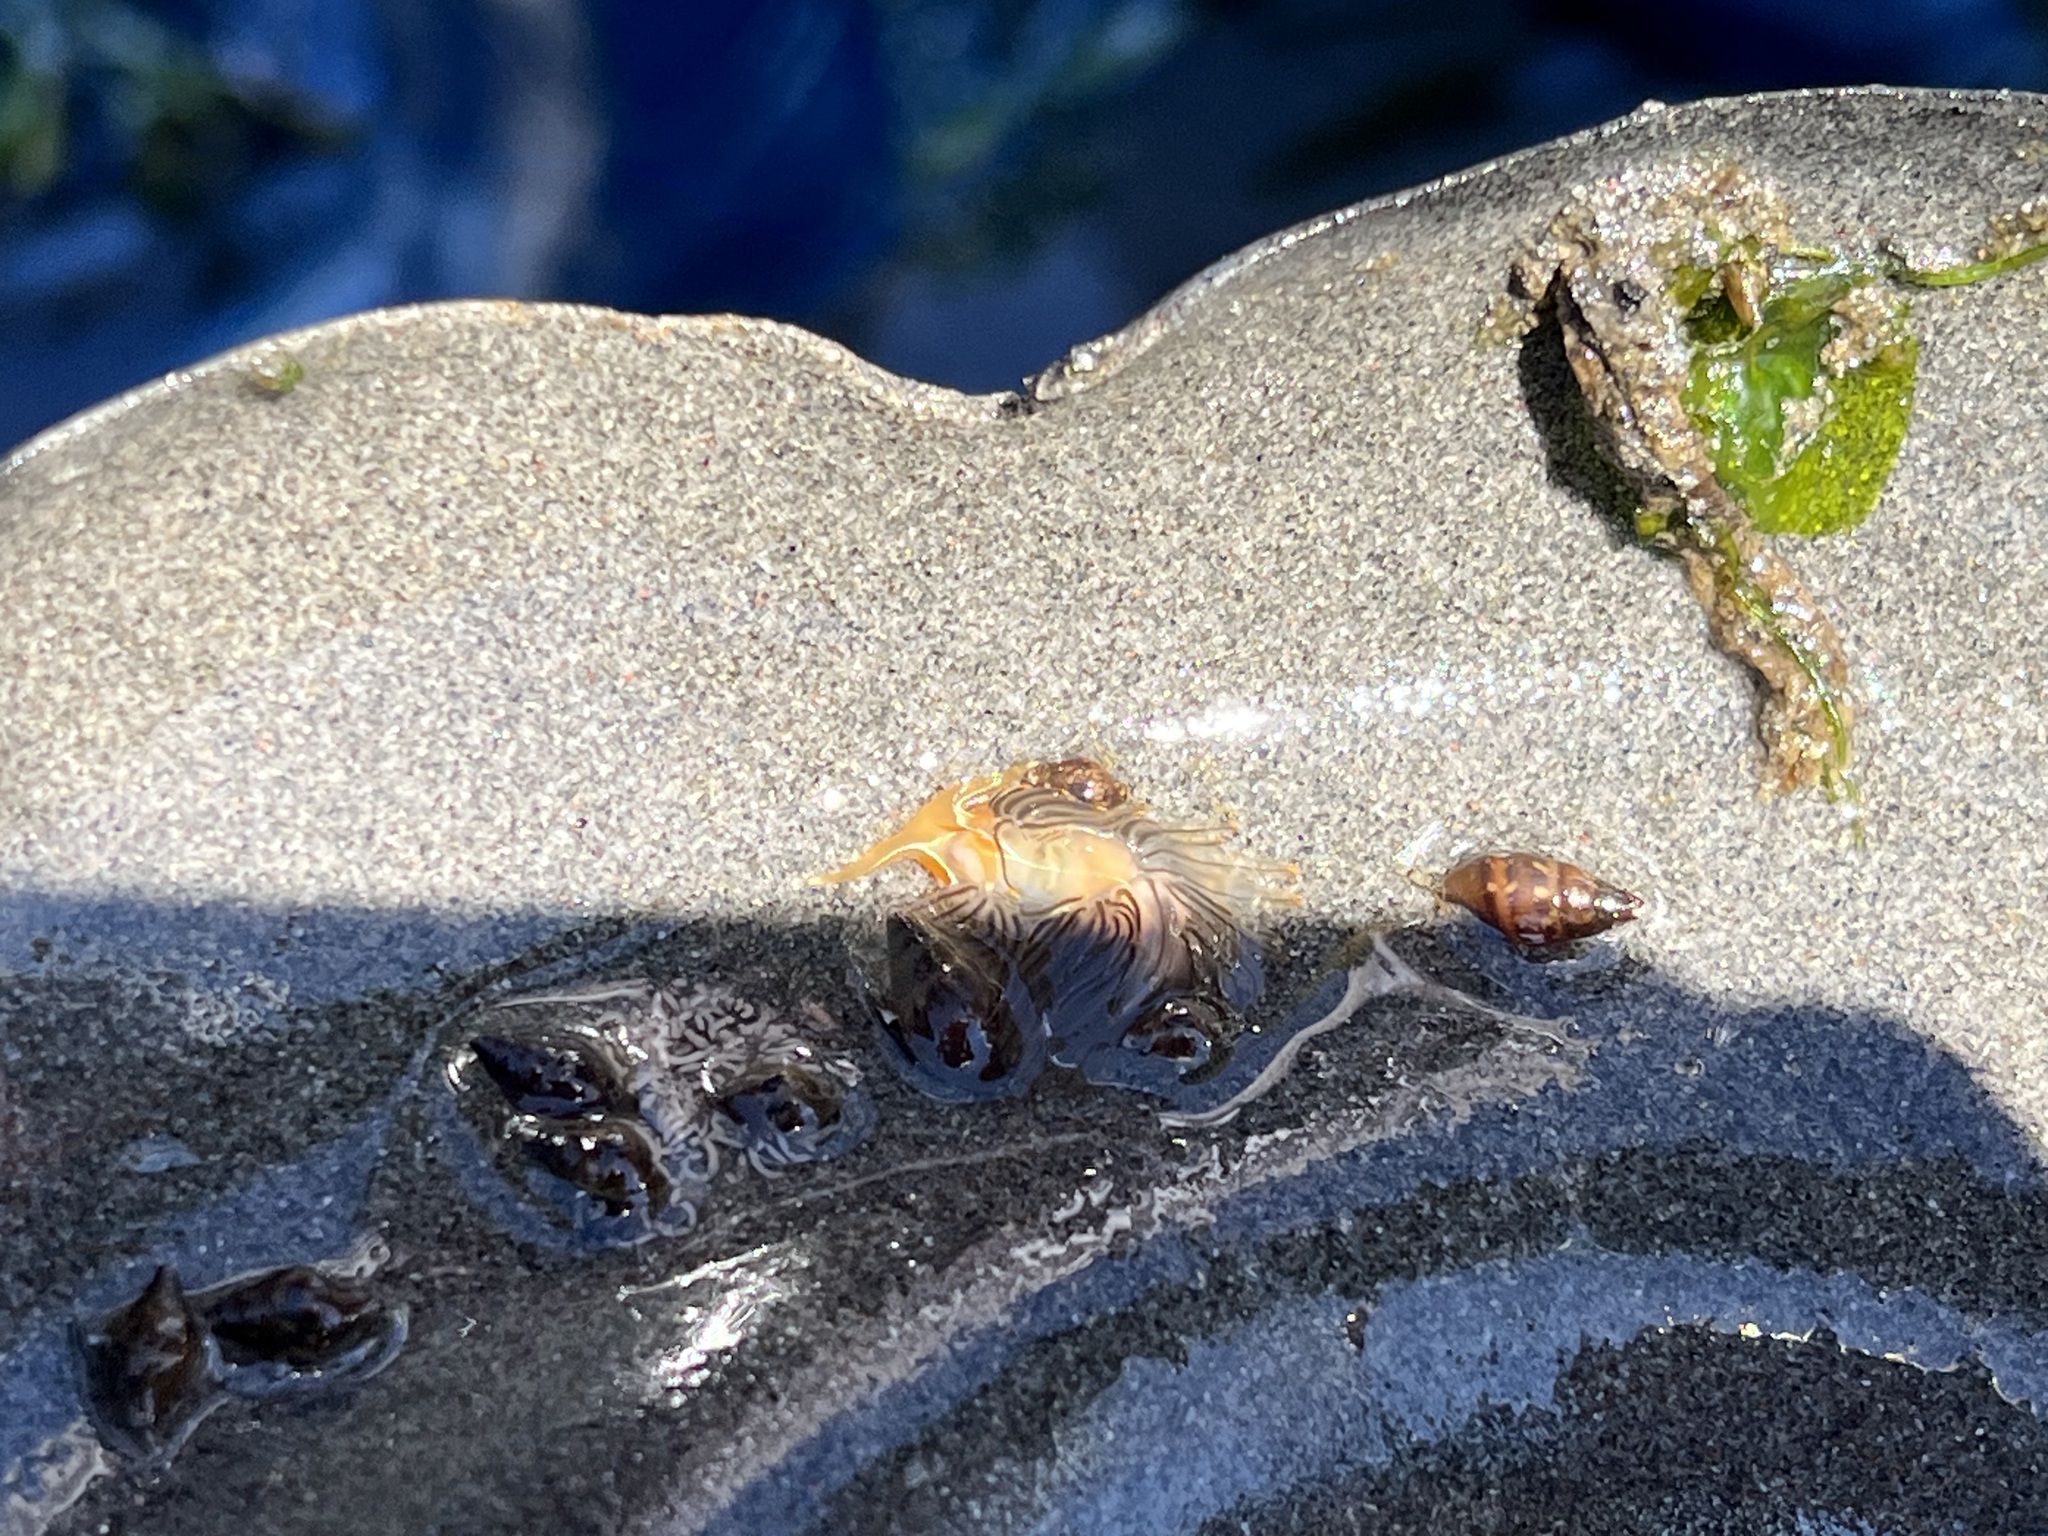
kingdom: Animalia
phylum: Mollusca
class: Gastropoda
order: Nudibranchia
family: Myrrhinidae
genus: Hermissenda
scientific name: Hermissenda crassicornis
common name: Hermissenda
